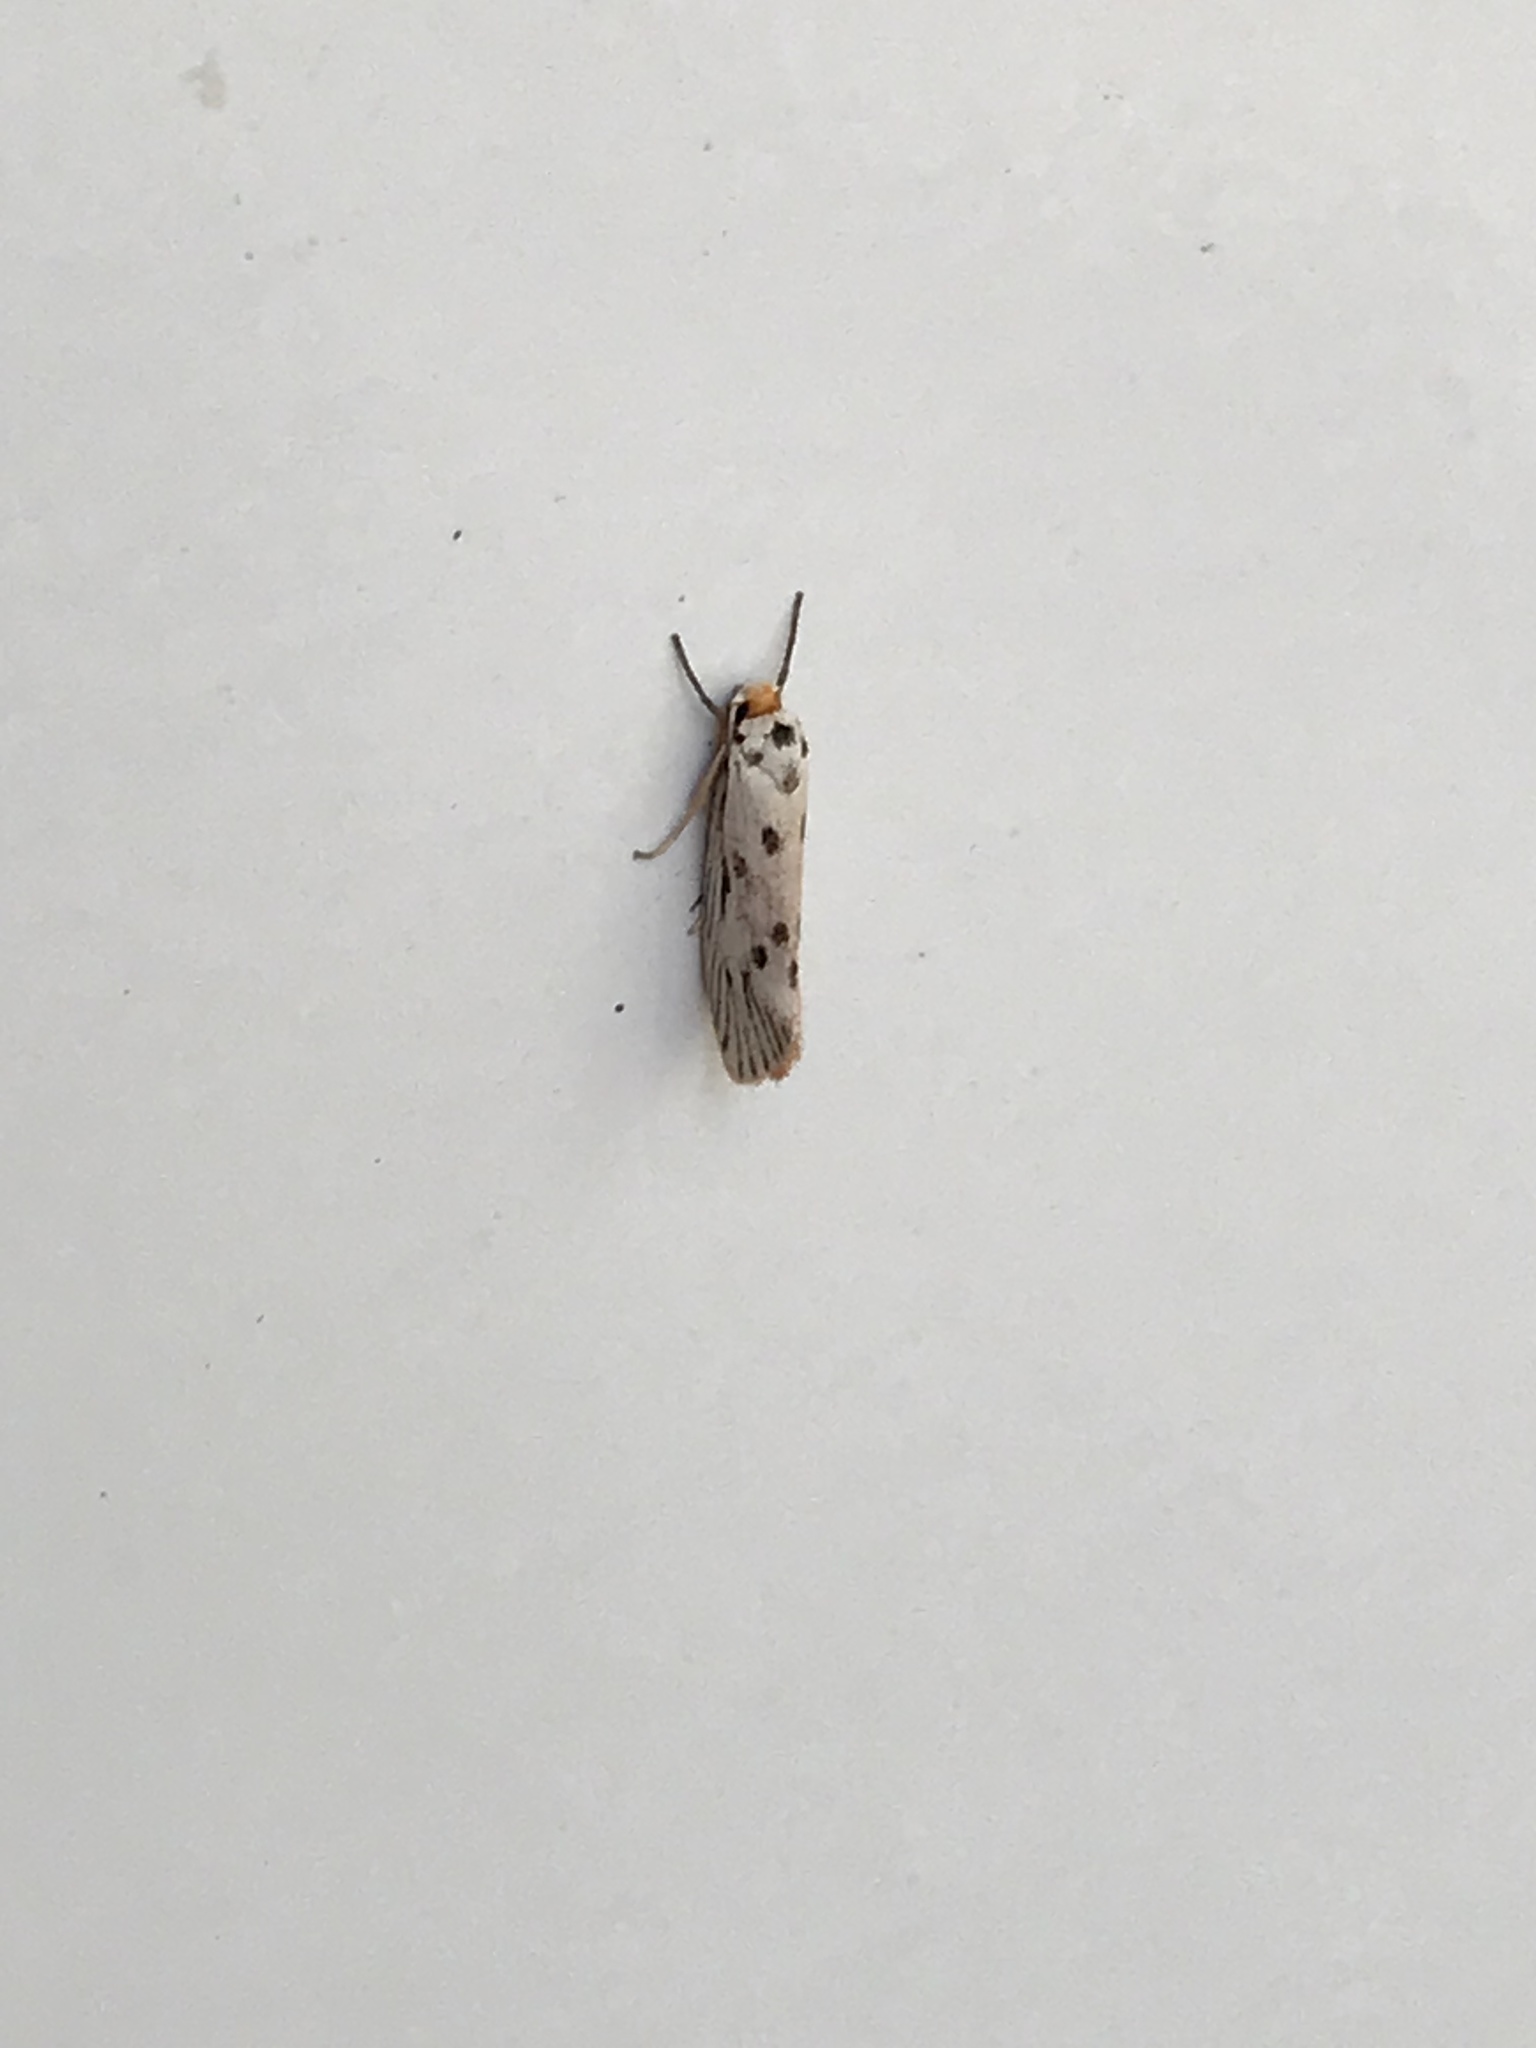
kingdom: Animalia
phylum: Arthropoda
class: Insecta
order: Lepidoptera
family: Lacturidae
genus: Lactura
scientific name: Lactura
